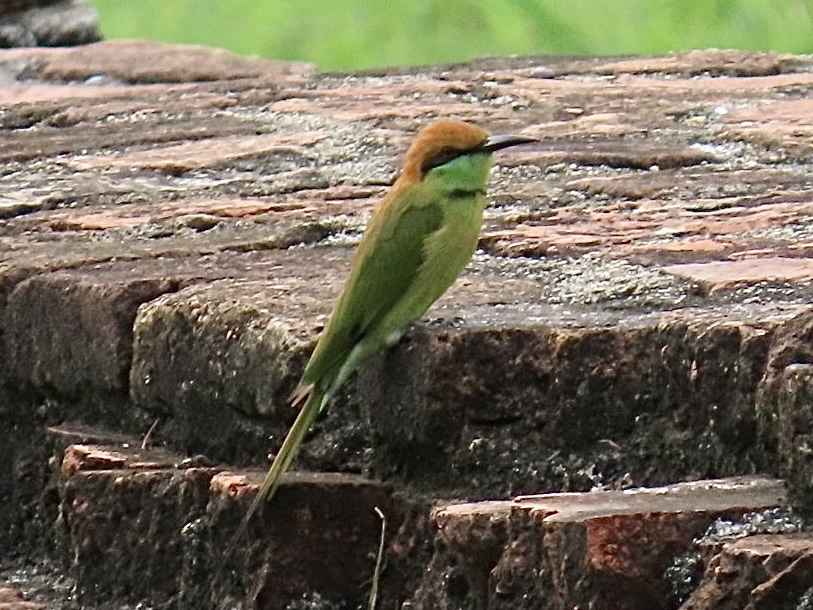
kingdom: Animalia
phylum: Chordata
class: Aves
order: Coraciiformes
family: Meropidae
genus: Merops
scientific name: Merops orientalis
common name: Green bee-eater
